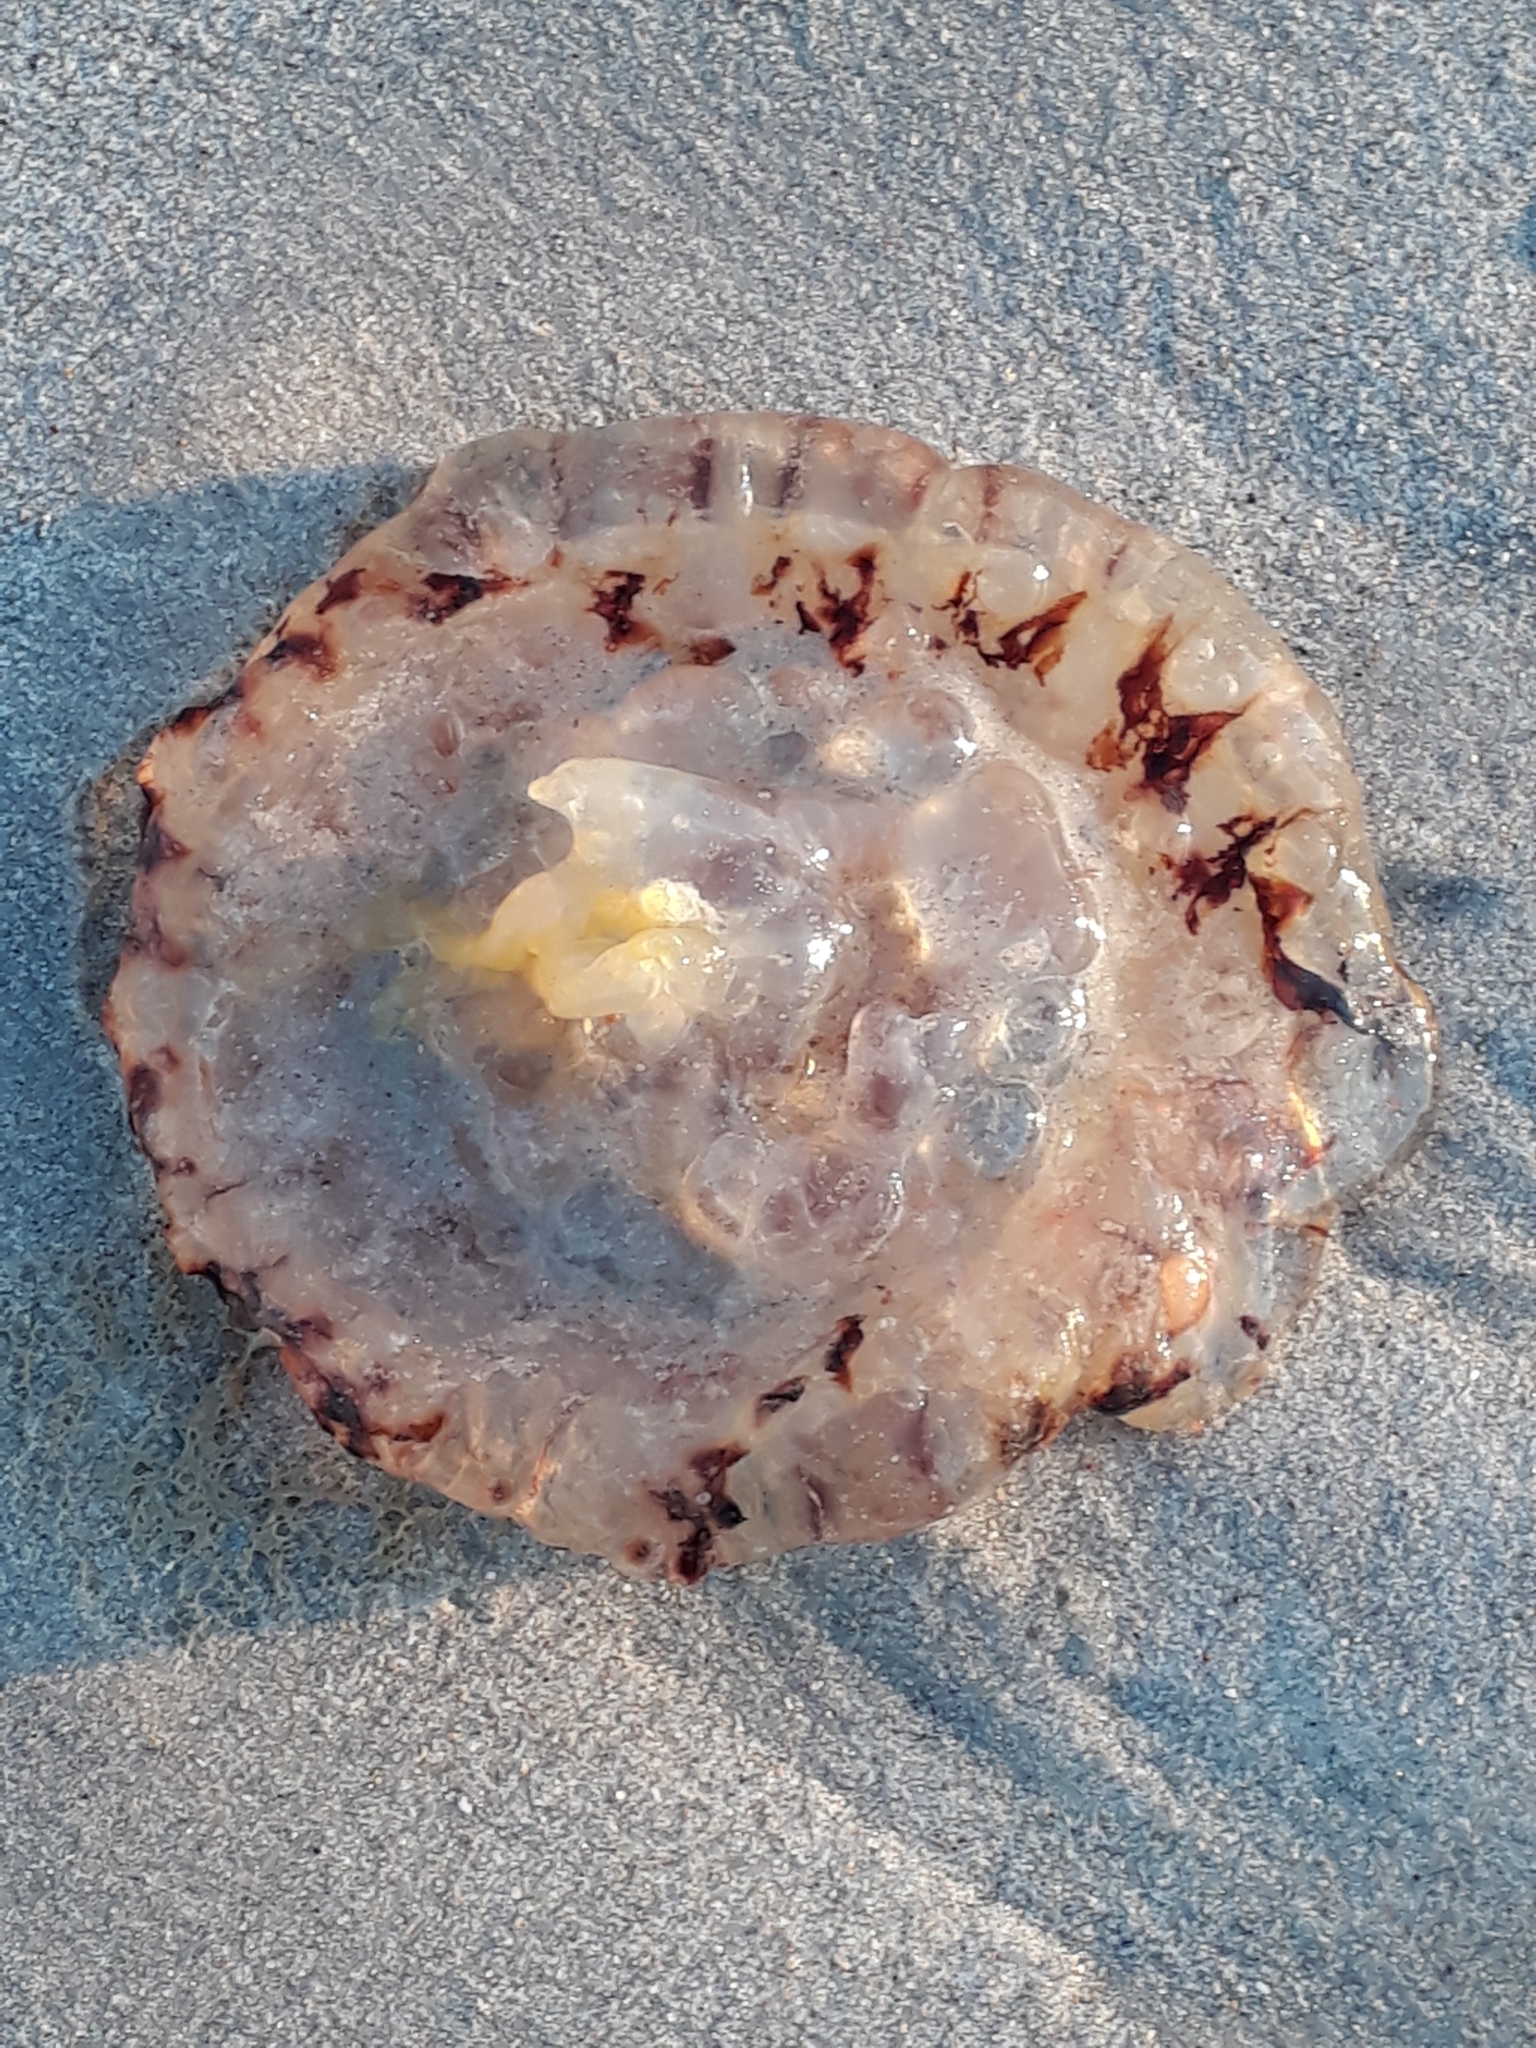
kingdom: Animalia
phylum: Cnidaria
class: Scyphozoa
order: Semaeostomeae
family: Pelagiidae
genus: Chrysaora
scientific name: Chrysaora fulgida
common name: Sea nettle
